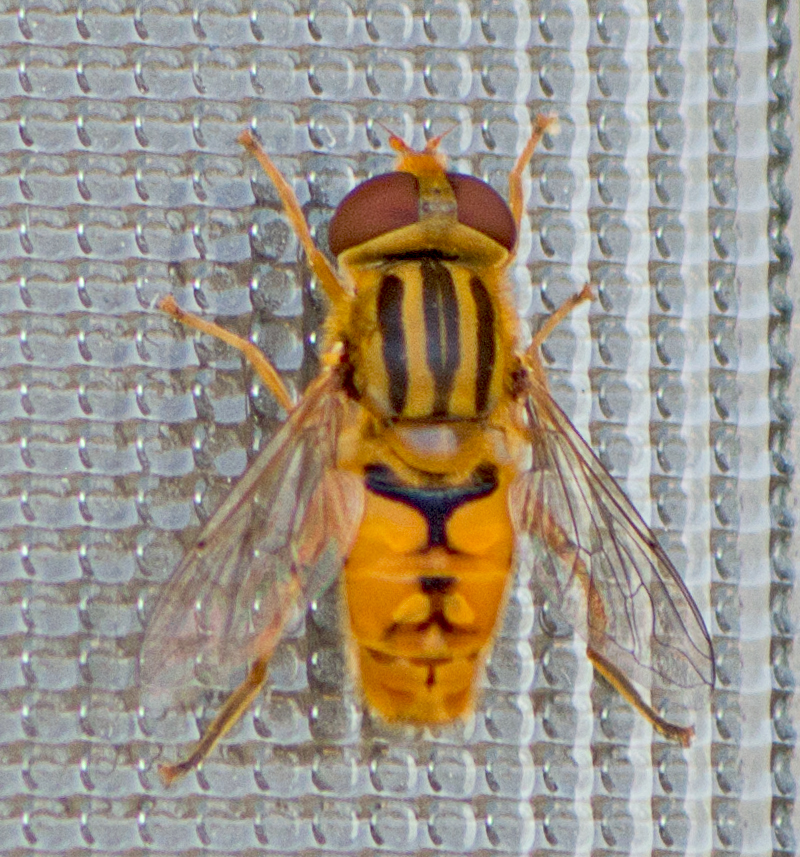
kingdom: Animalia
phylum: Arthropoda
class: Insecta
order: Diptera
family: Syrphidae
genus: Parhelophilus
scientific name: Parhelophilus
